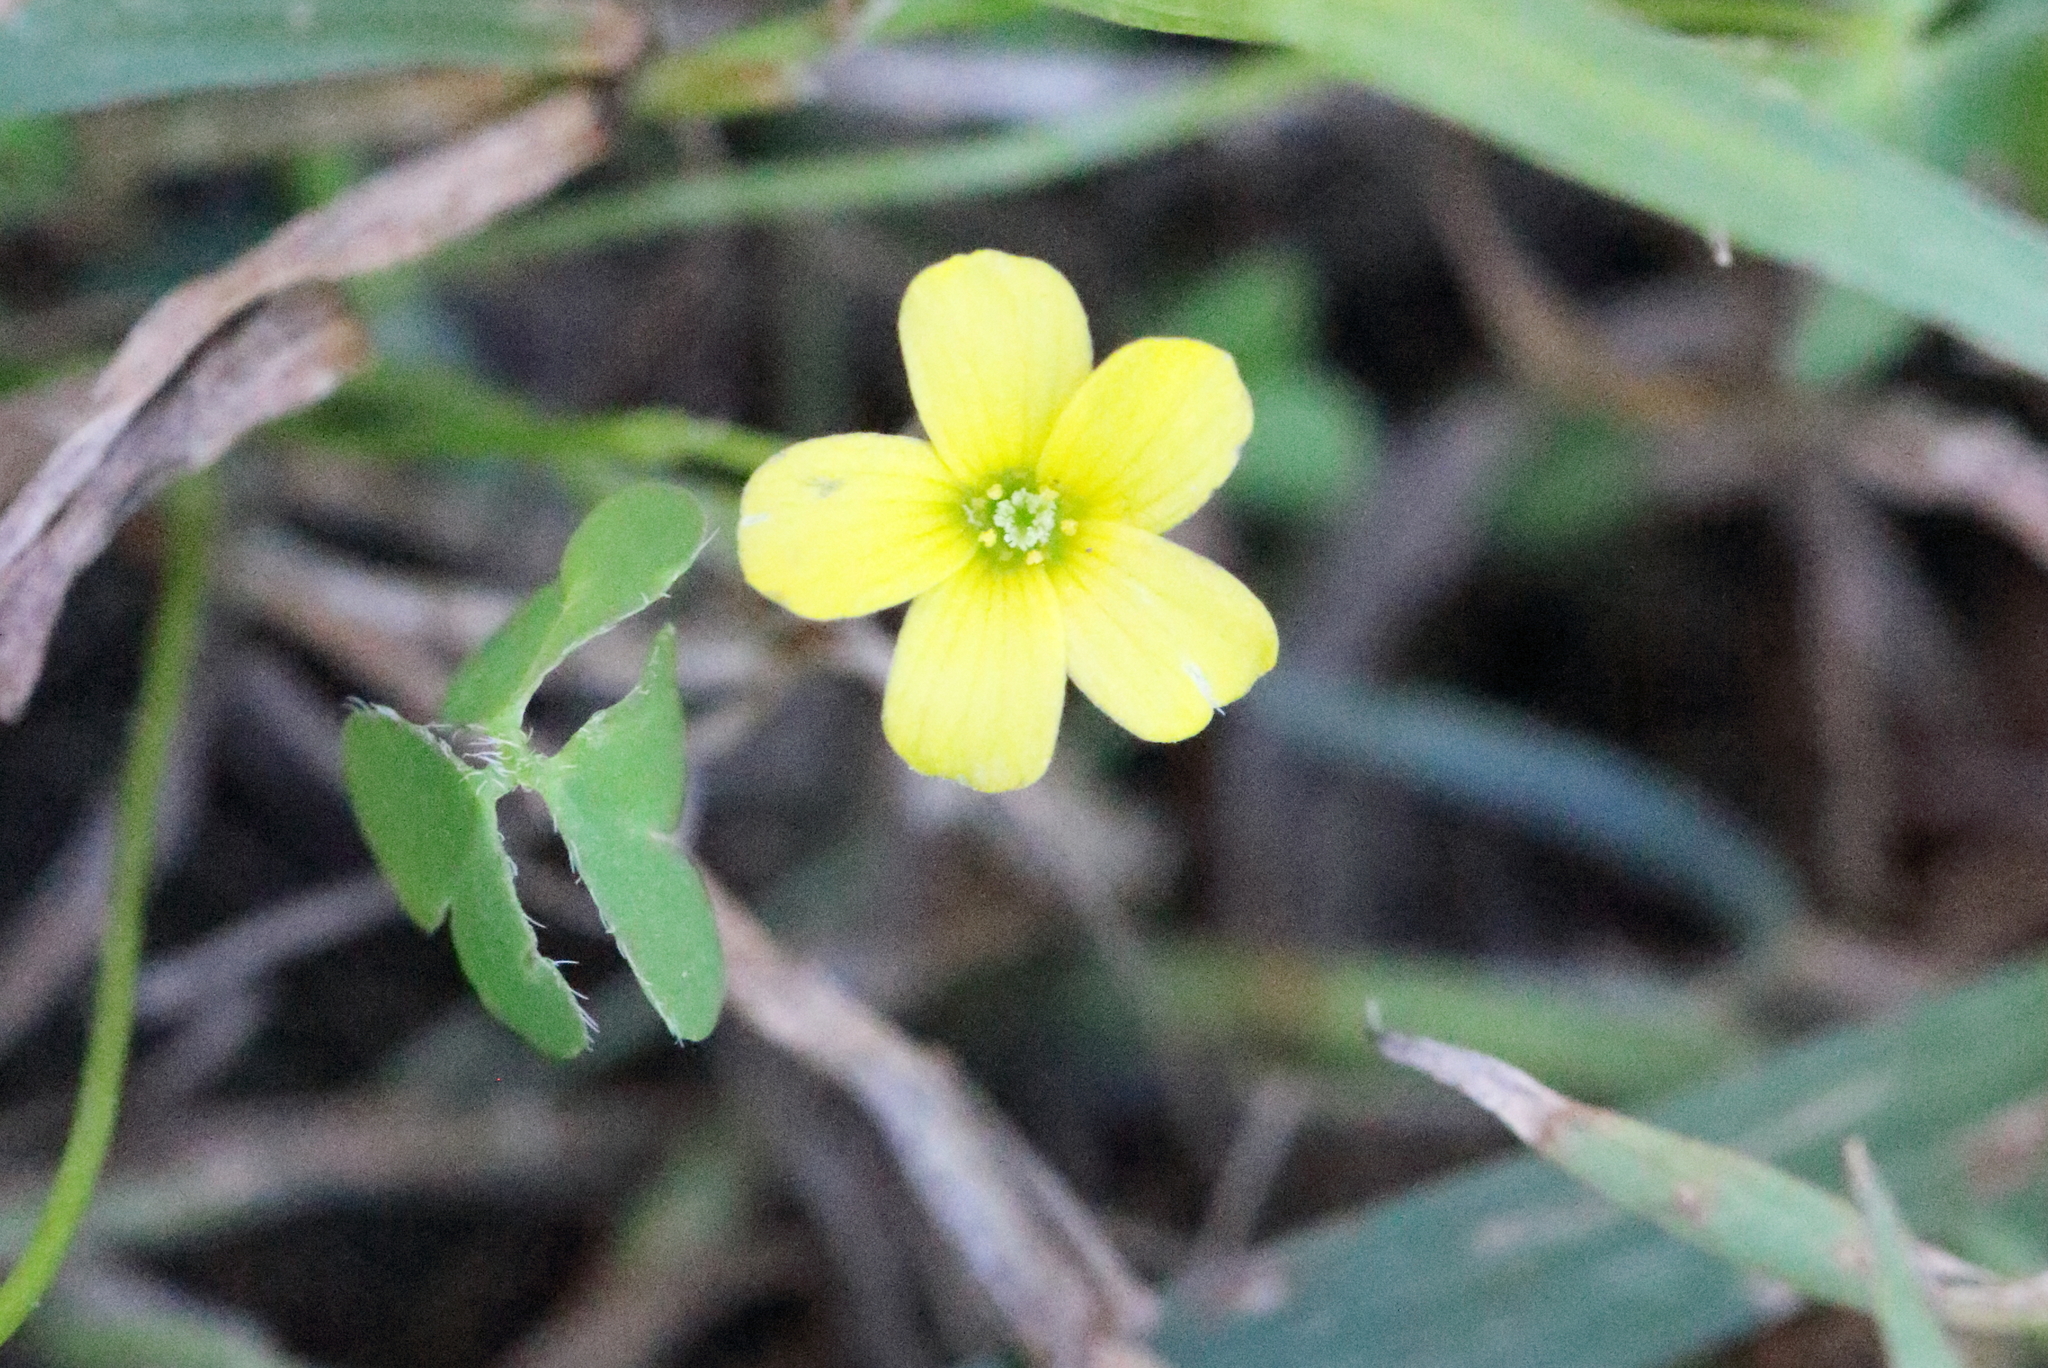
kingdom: Plantae
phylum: Tracheophyta
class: Magnoliopsida
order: Oxalidales
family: Oxalidaceae
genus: Oxalis
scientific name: Oxalis corniculata
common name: Procumbent yellow-sorrel
